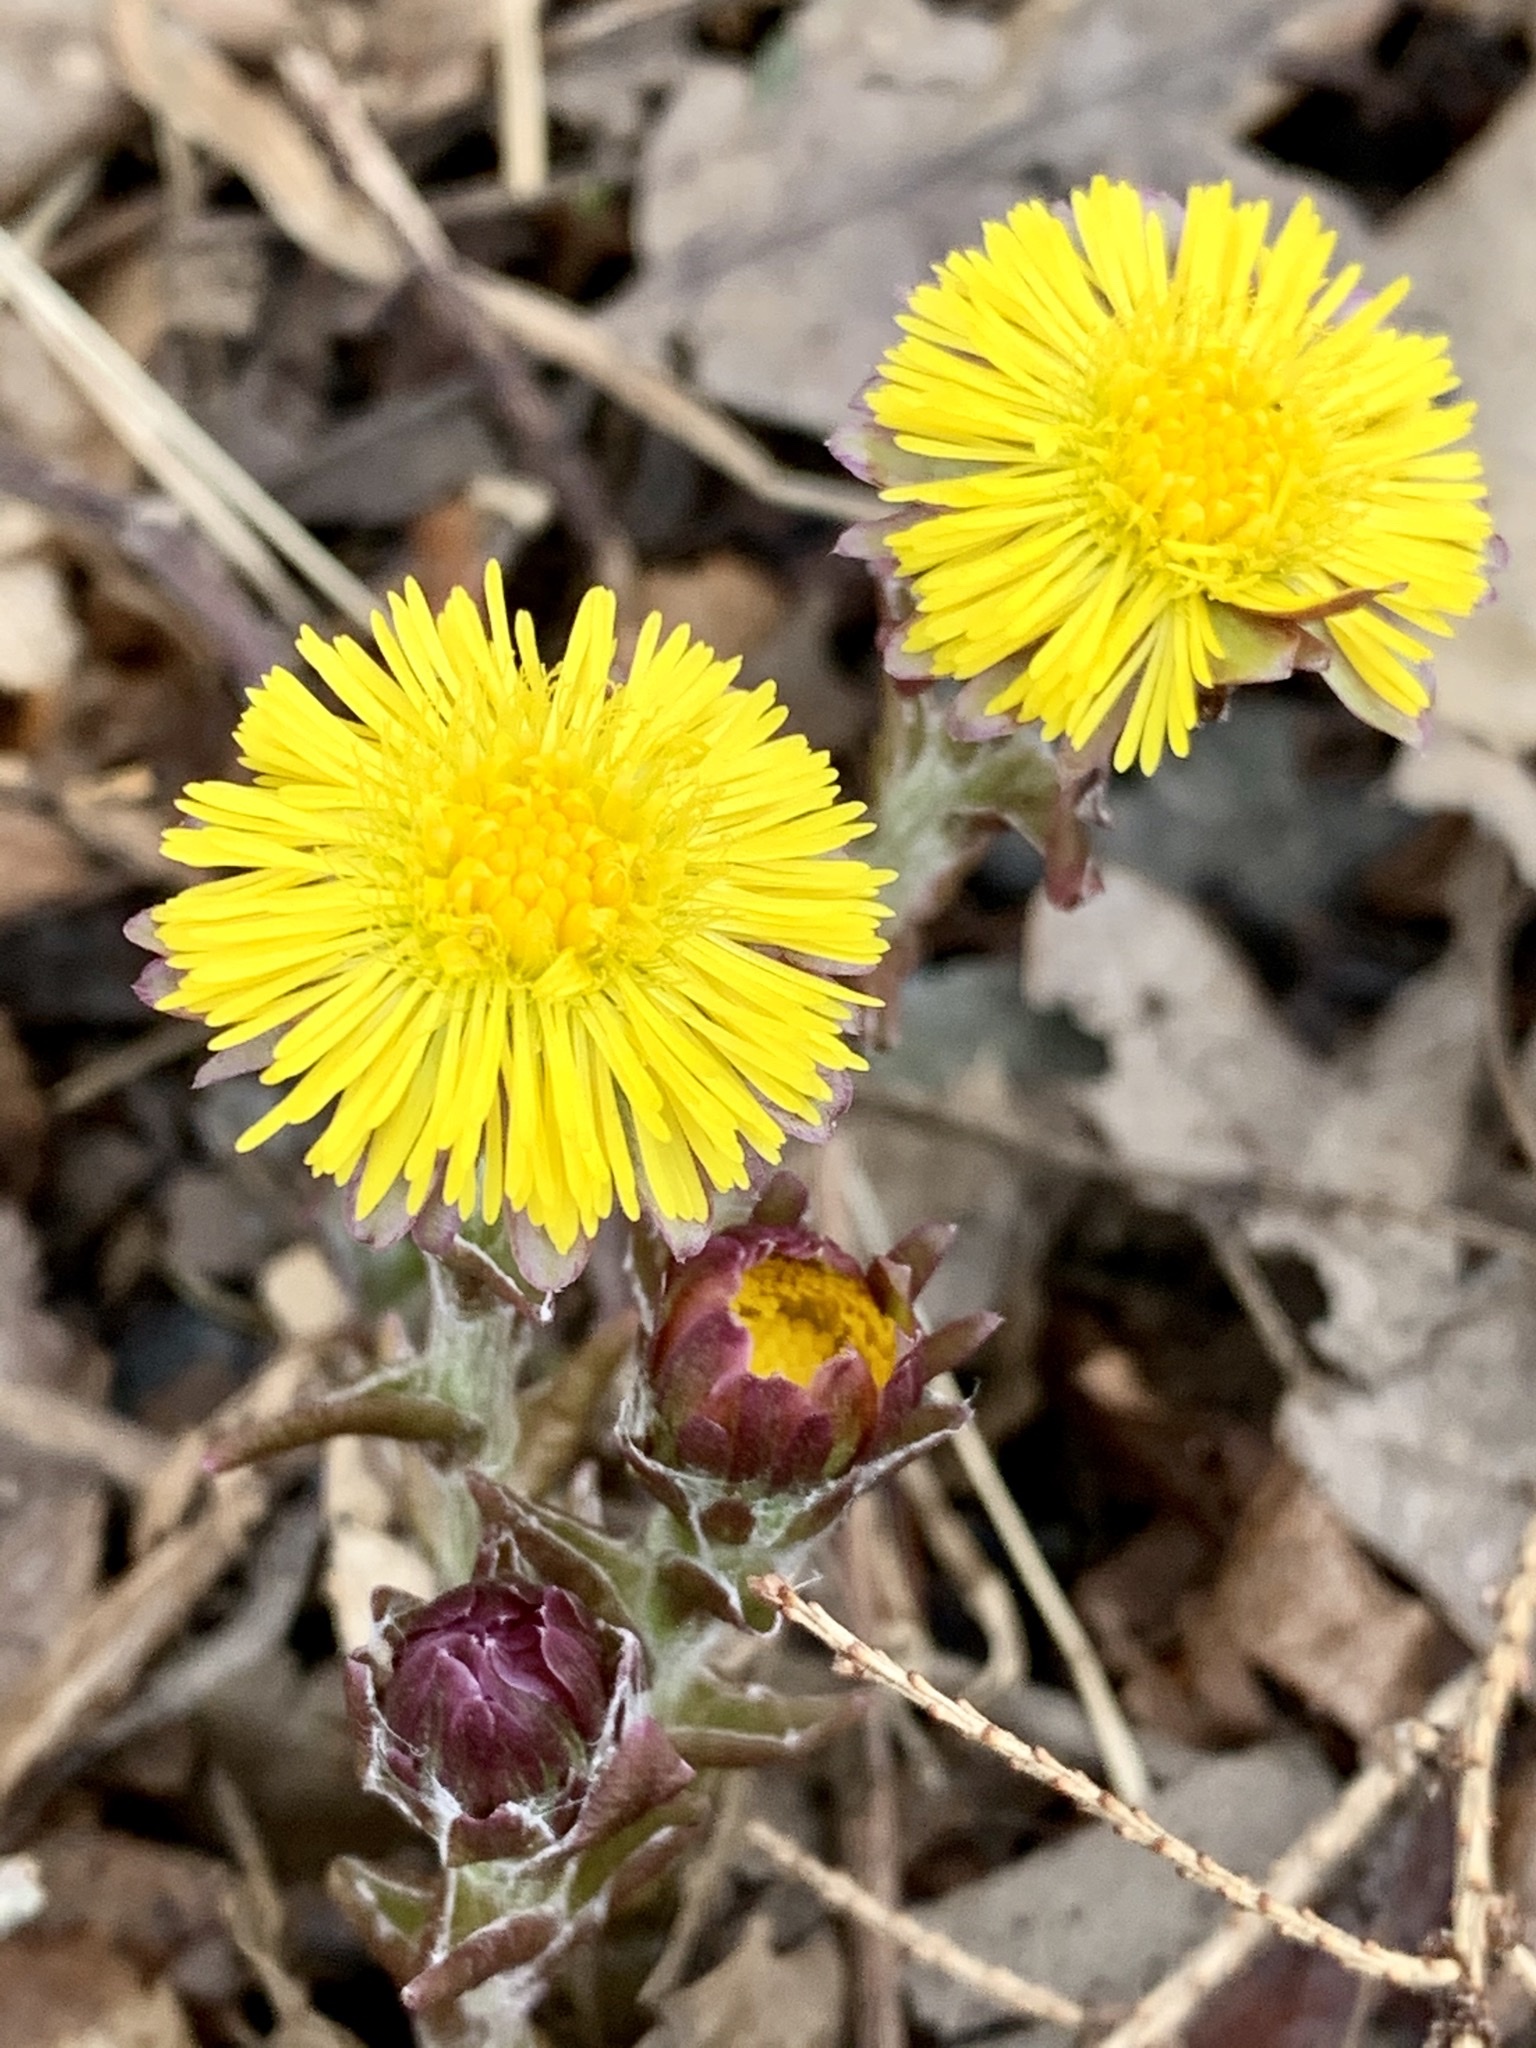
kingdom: Plantae
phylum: Tracheophyta
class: Magnoliopsida
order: Asterales
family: Asteraceae
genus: Tussilago
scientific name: Tussilago farfara
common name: Coltsfoot
